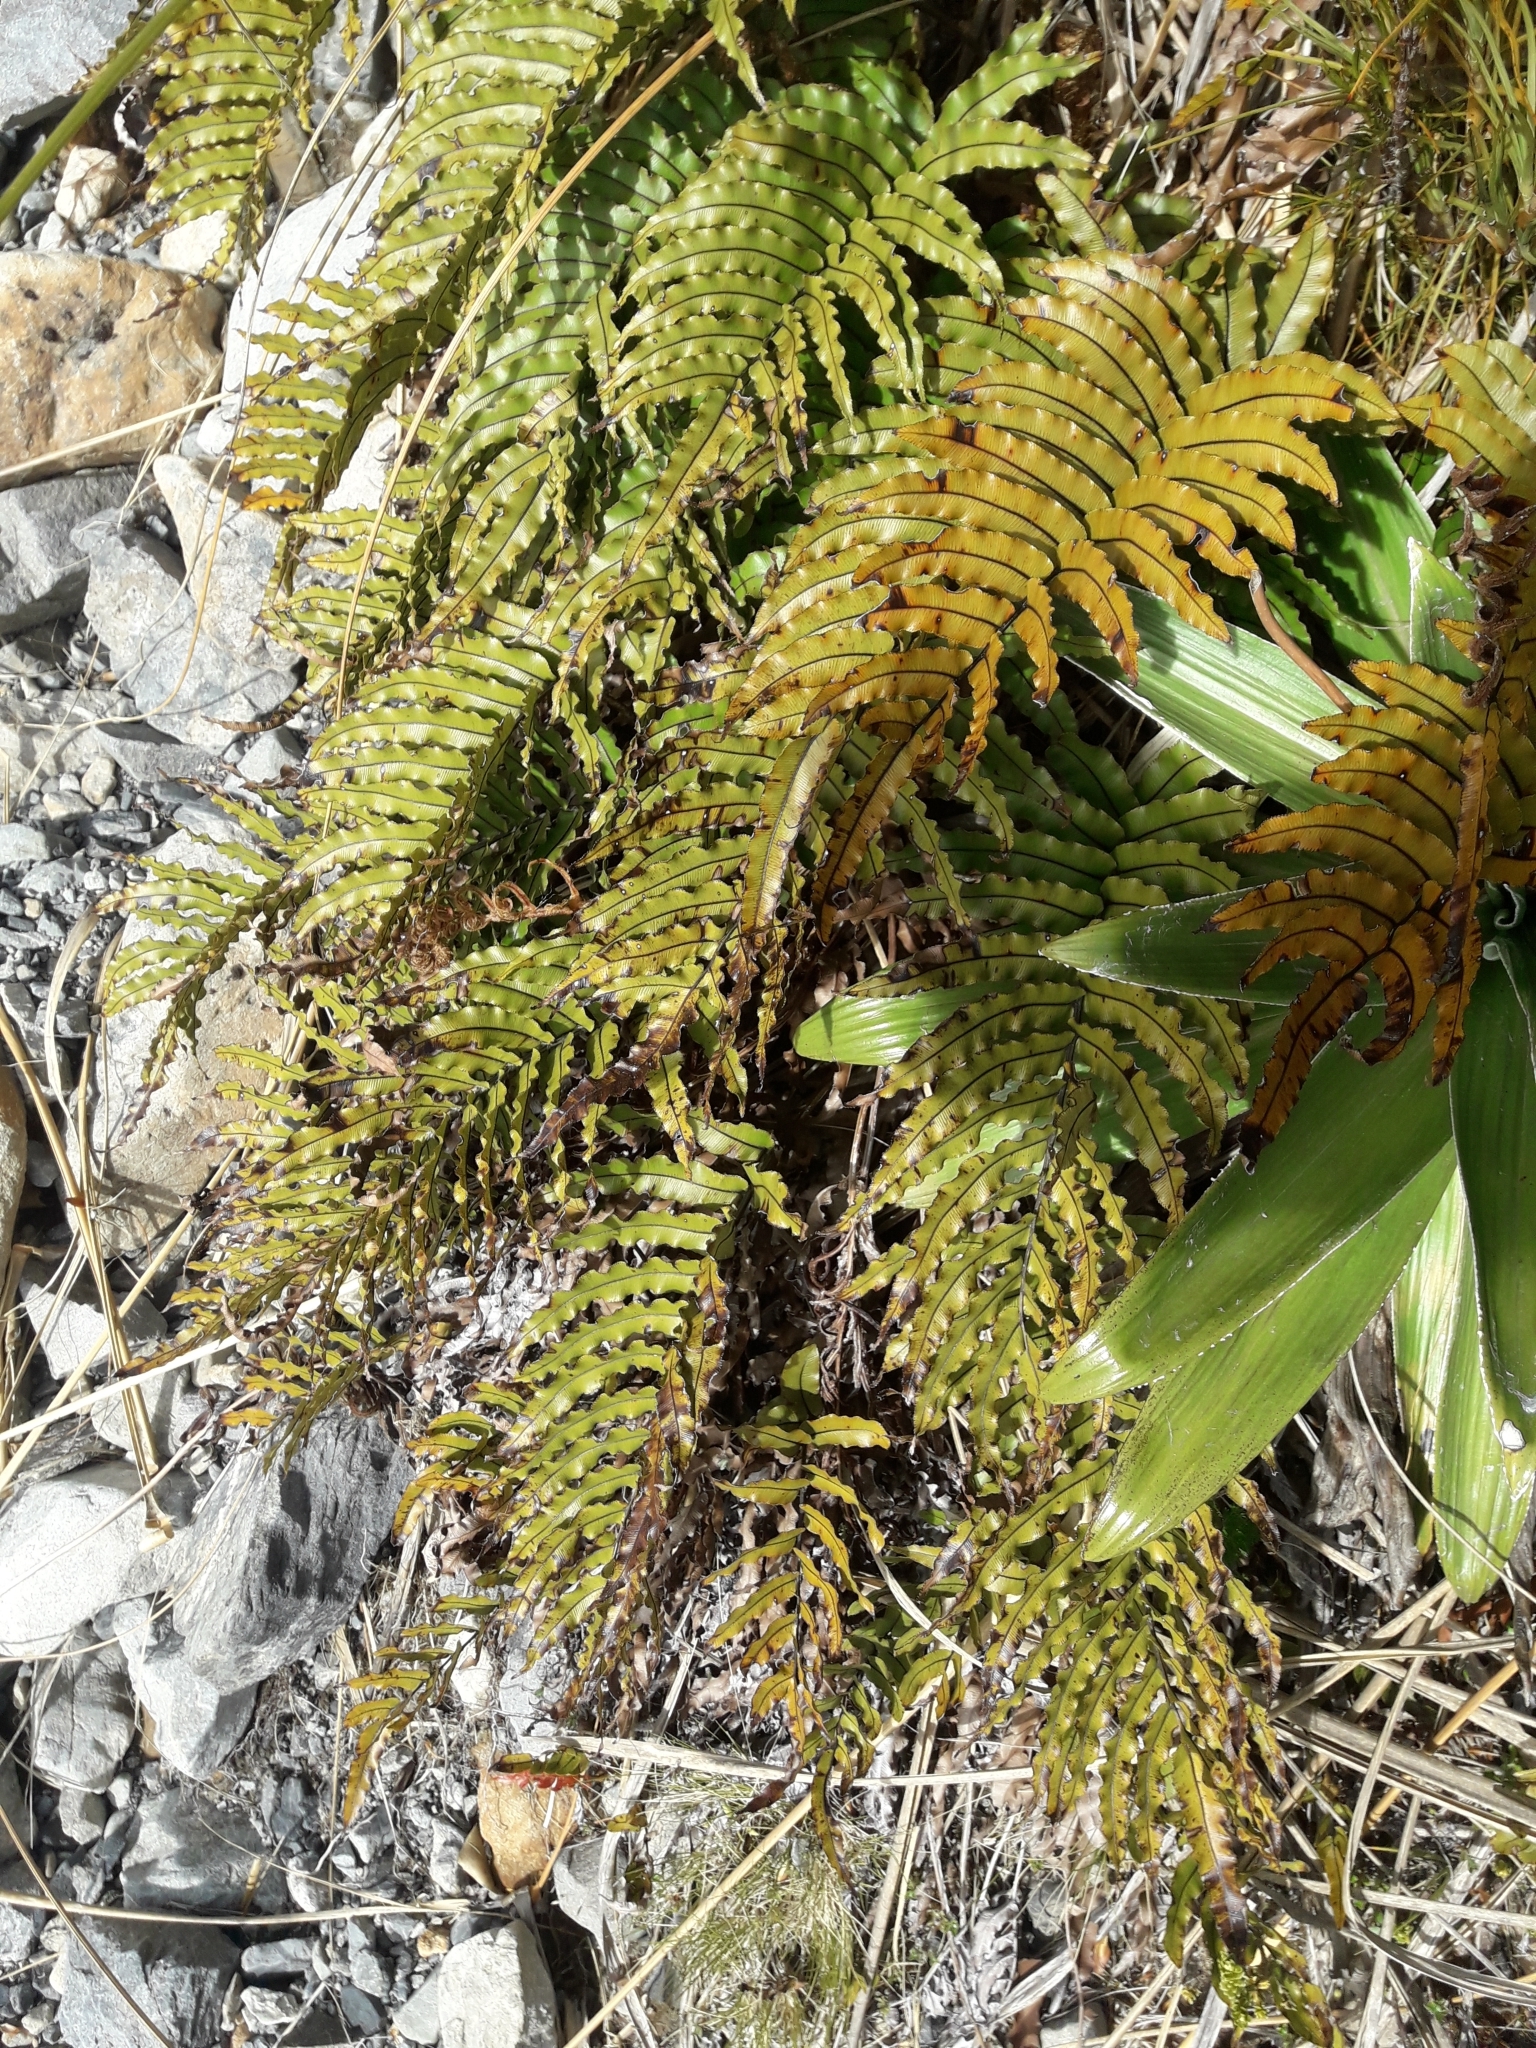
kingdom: Plantae
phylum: Tracheophyta
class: Polypodiopsida
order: Polypodiales
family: Blechnaceae
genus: Parablechnum
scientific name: Parablechnum montanum
